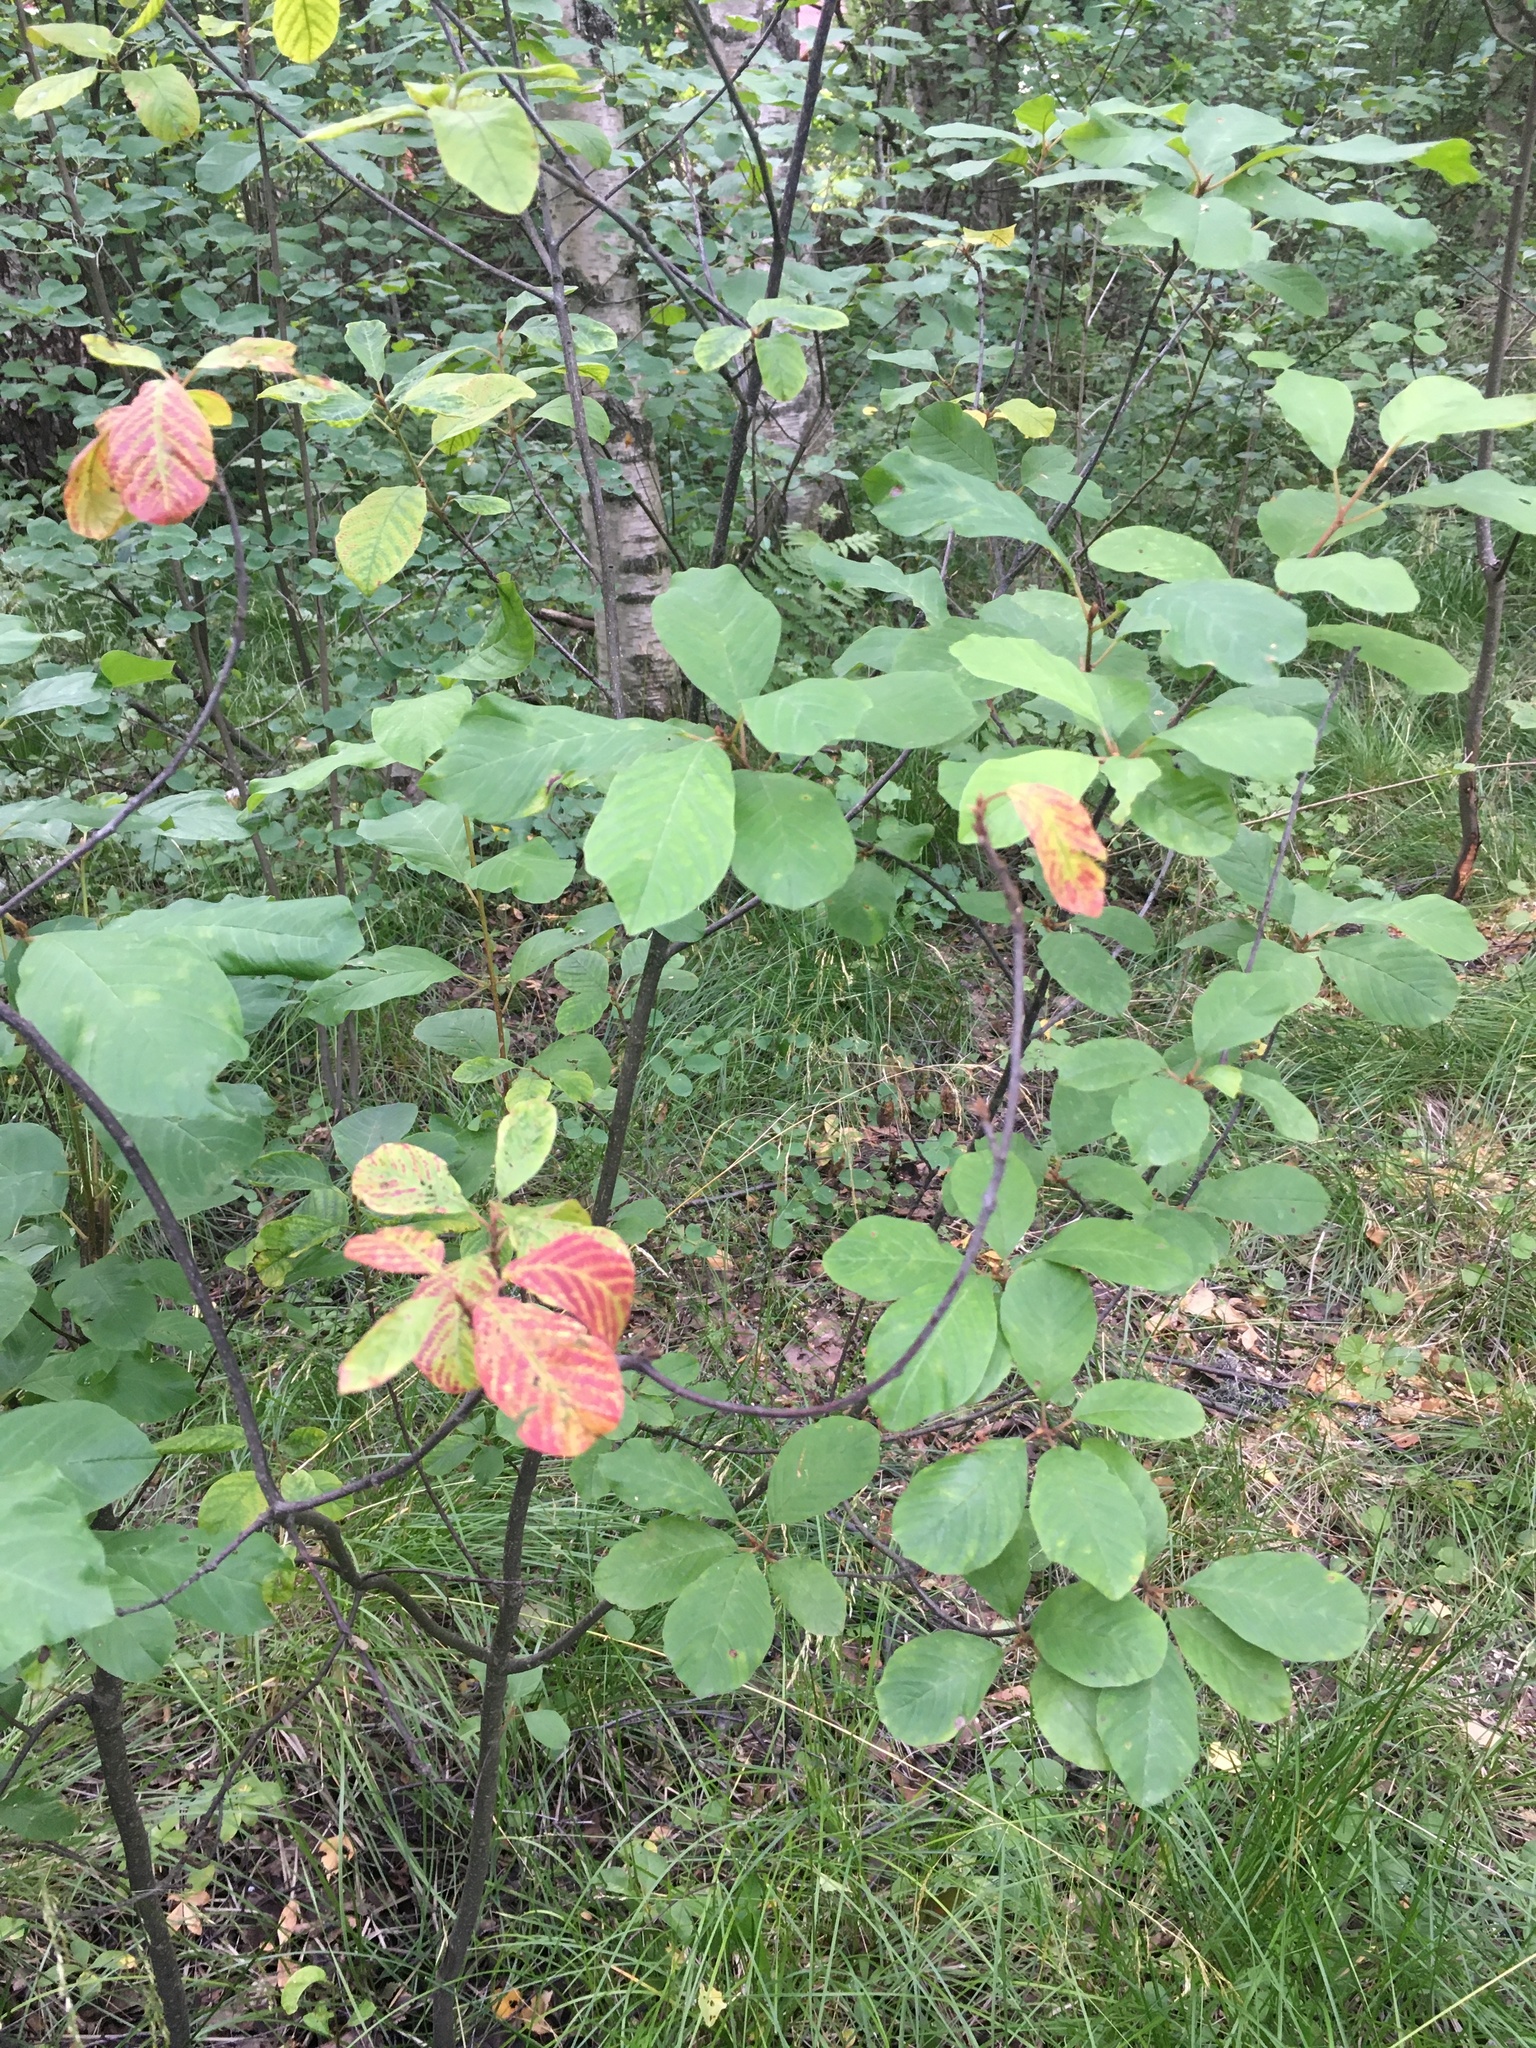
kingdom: Plantae
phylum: Tracheophyta
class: Magnoliopsida
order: Rosales
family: Rhamnaceae
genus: Frangula
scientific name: Frangula alnus
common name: Alder buckthorn
